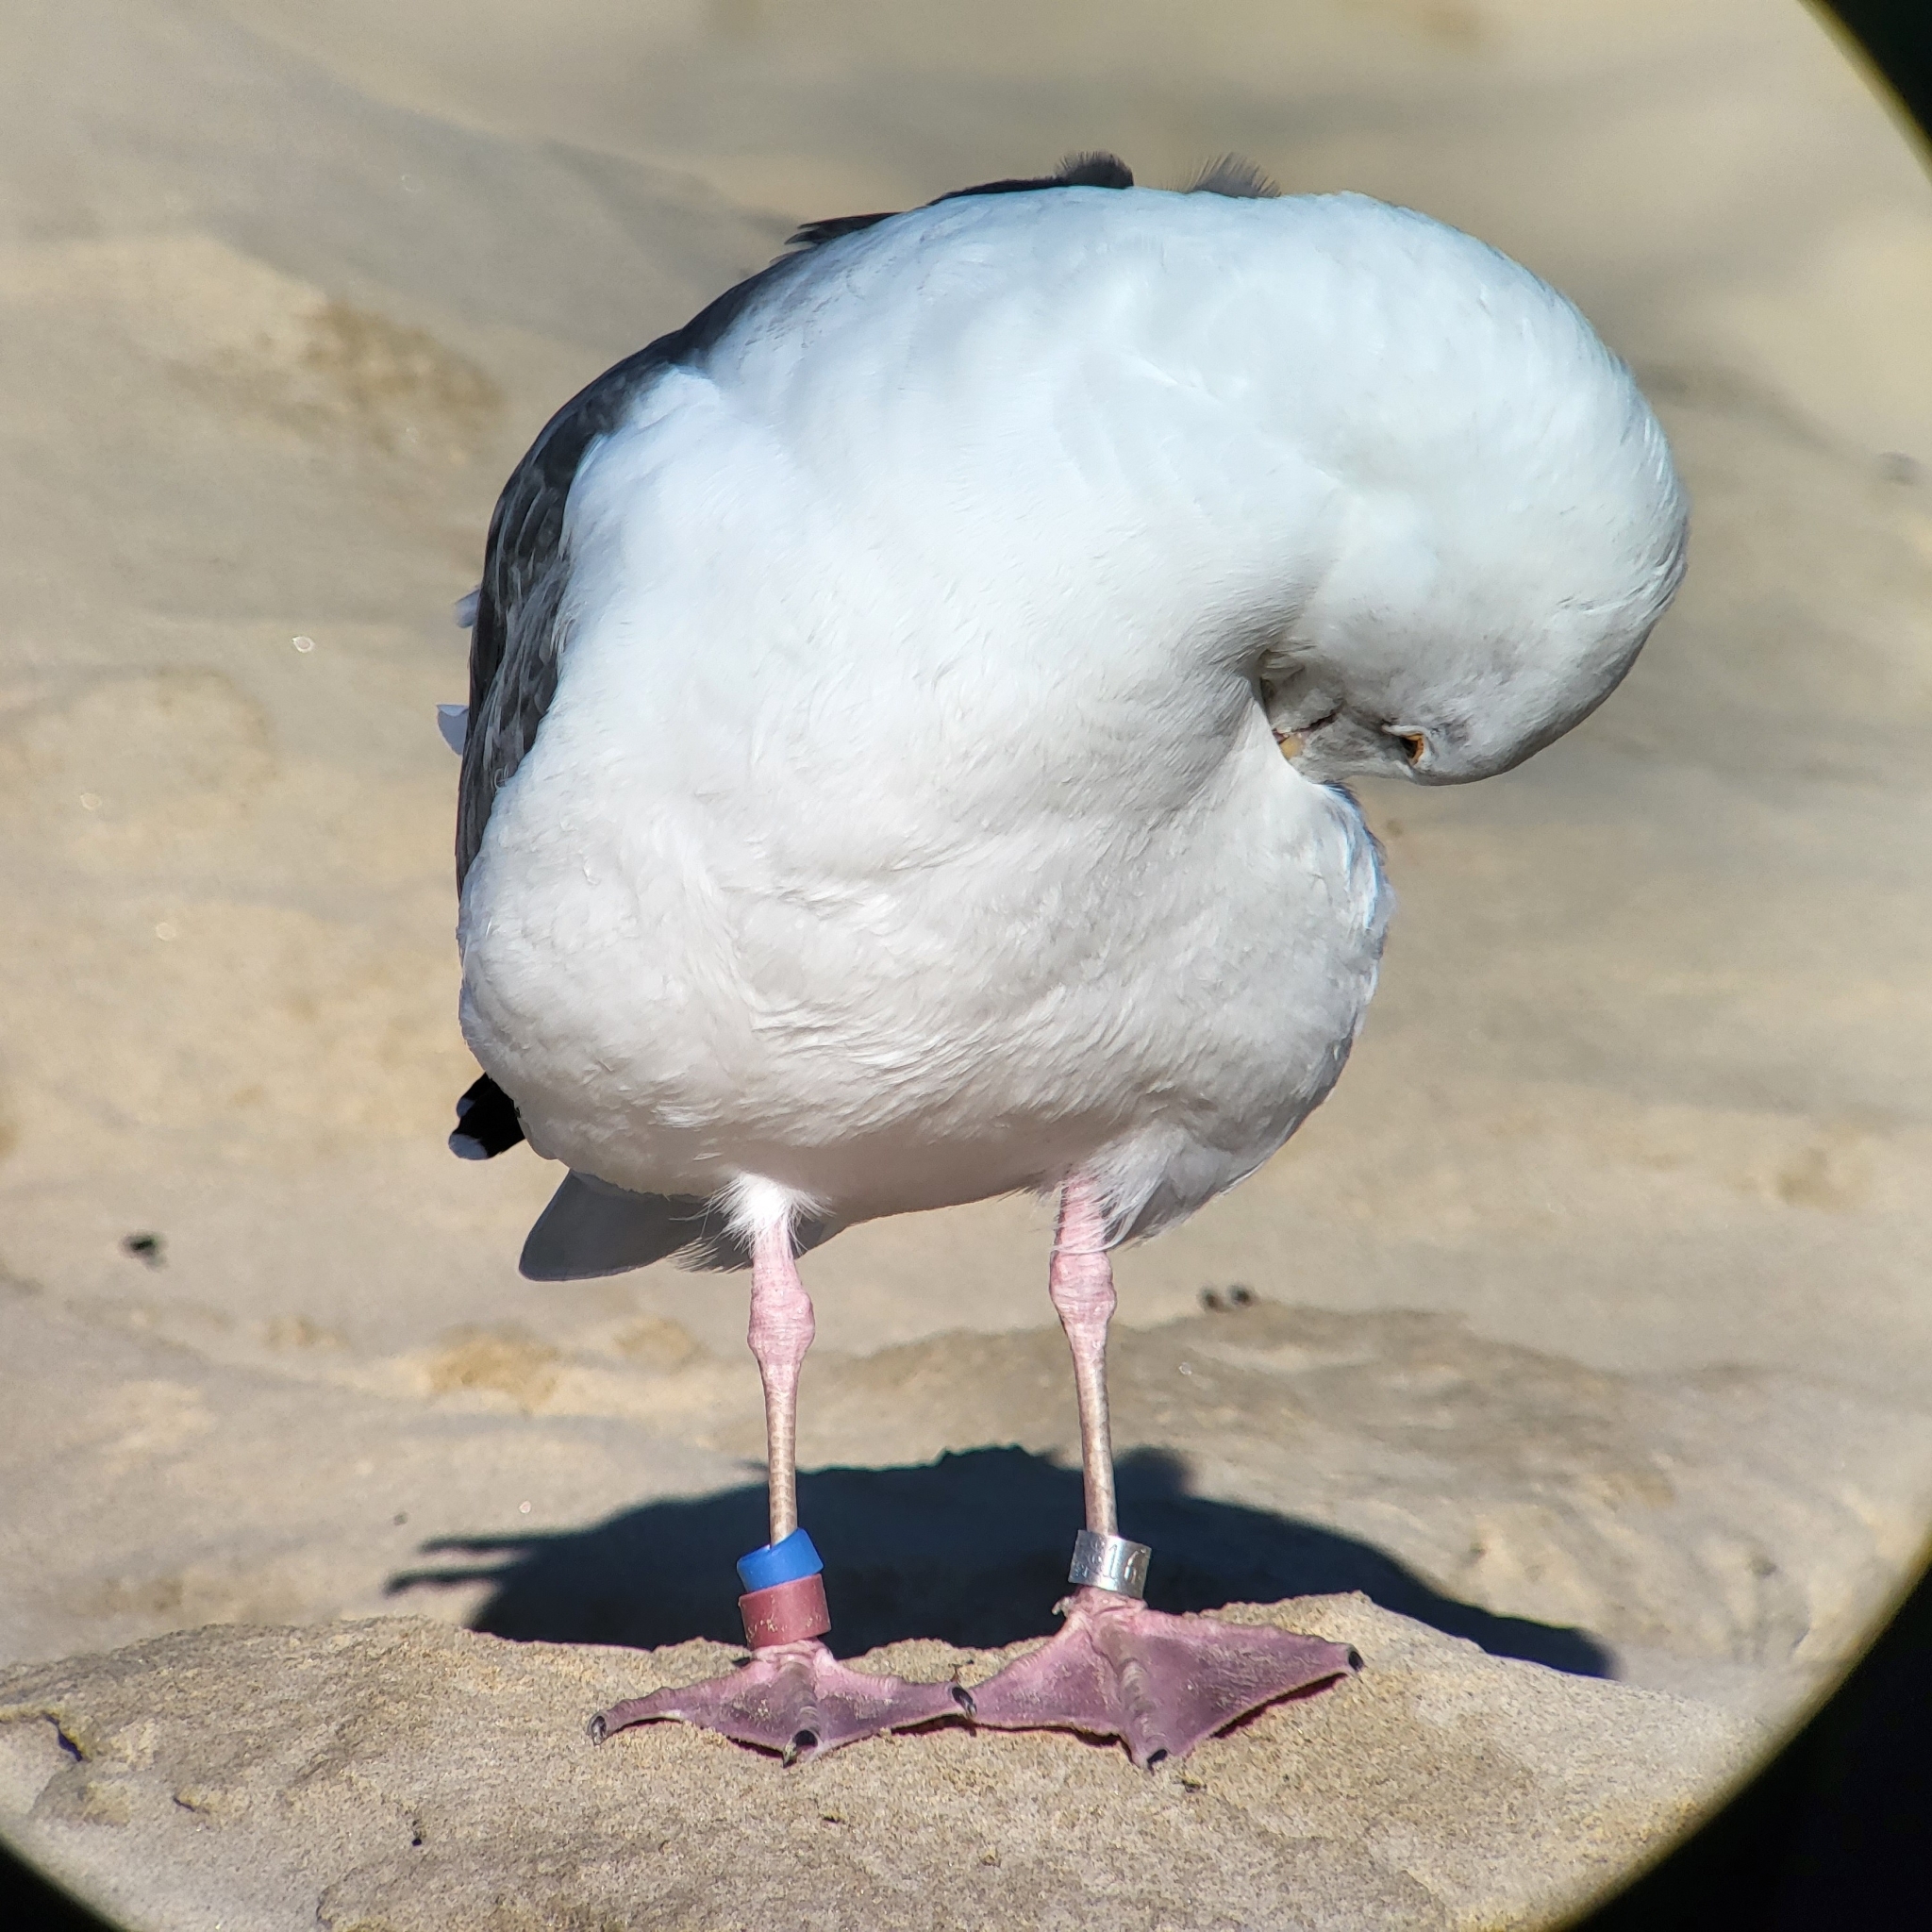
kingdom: Animalia
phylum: Chordata
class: Aves
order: Charadriiformes
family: Laridae
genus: Larus
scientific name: Larus occidentalis
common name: Western gull
